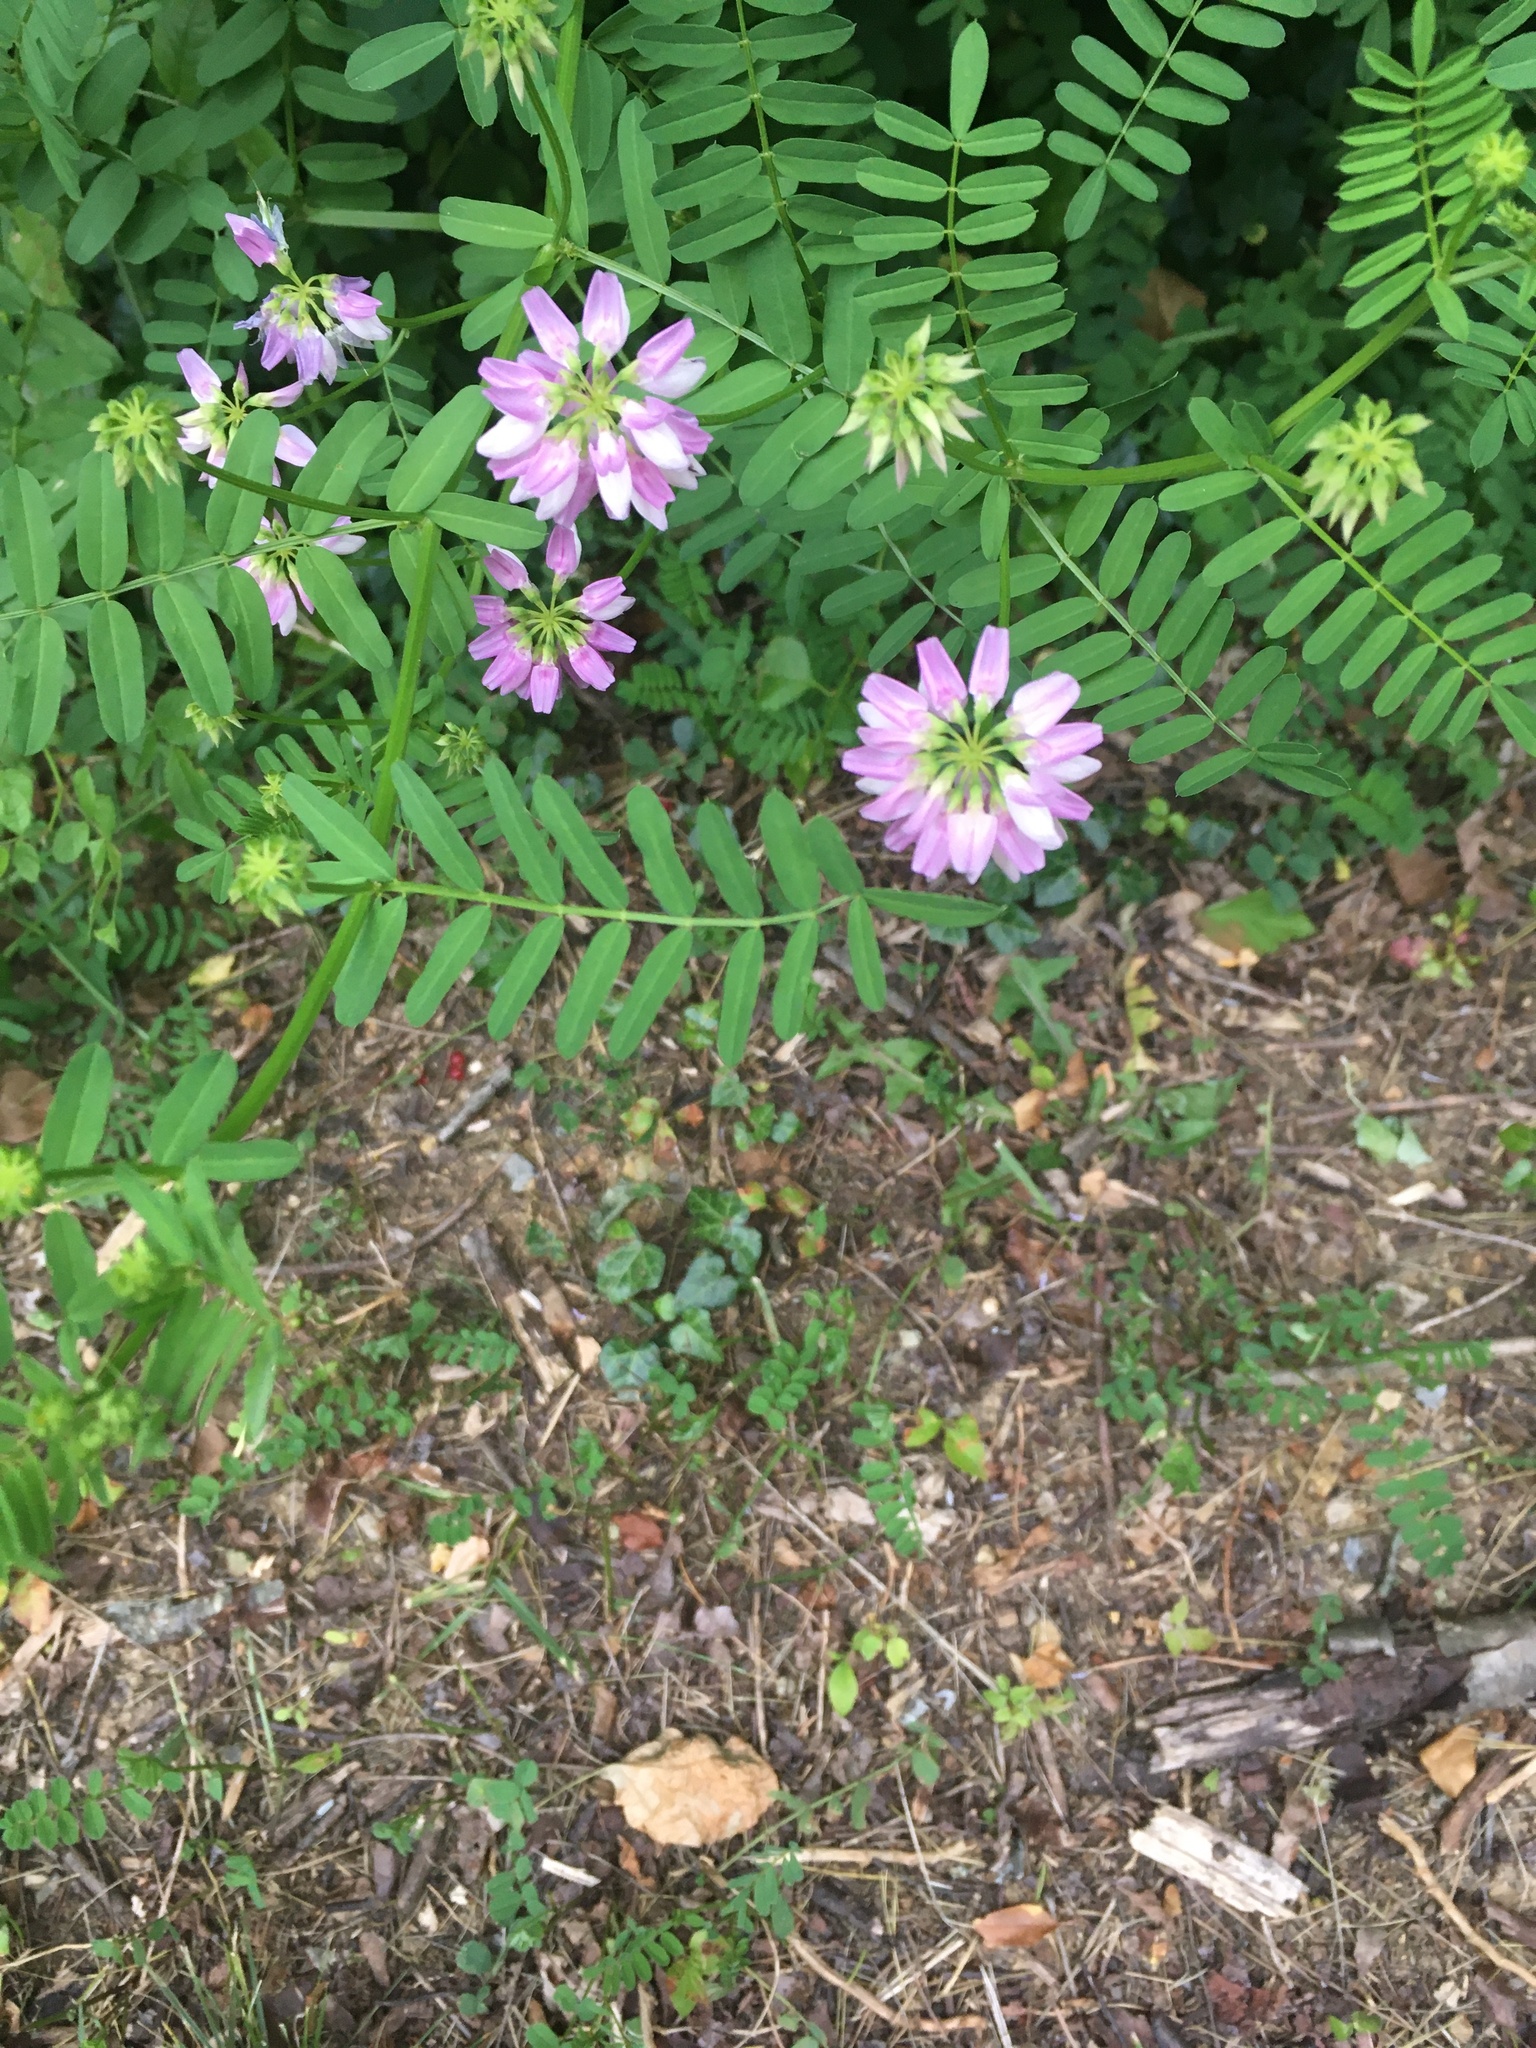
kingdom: Plantae
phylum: Tracheophyta
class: Magnoliopsida
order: Fabales
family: Fabaceae
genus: Coronilla
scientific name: Coronilla varia
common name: Crownvetch
